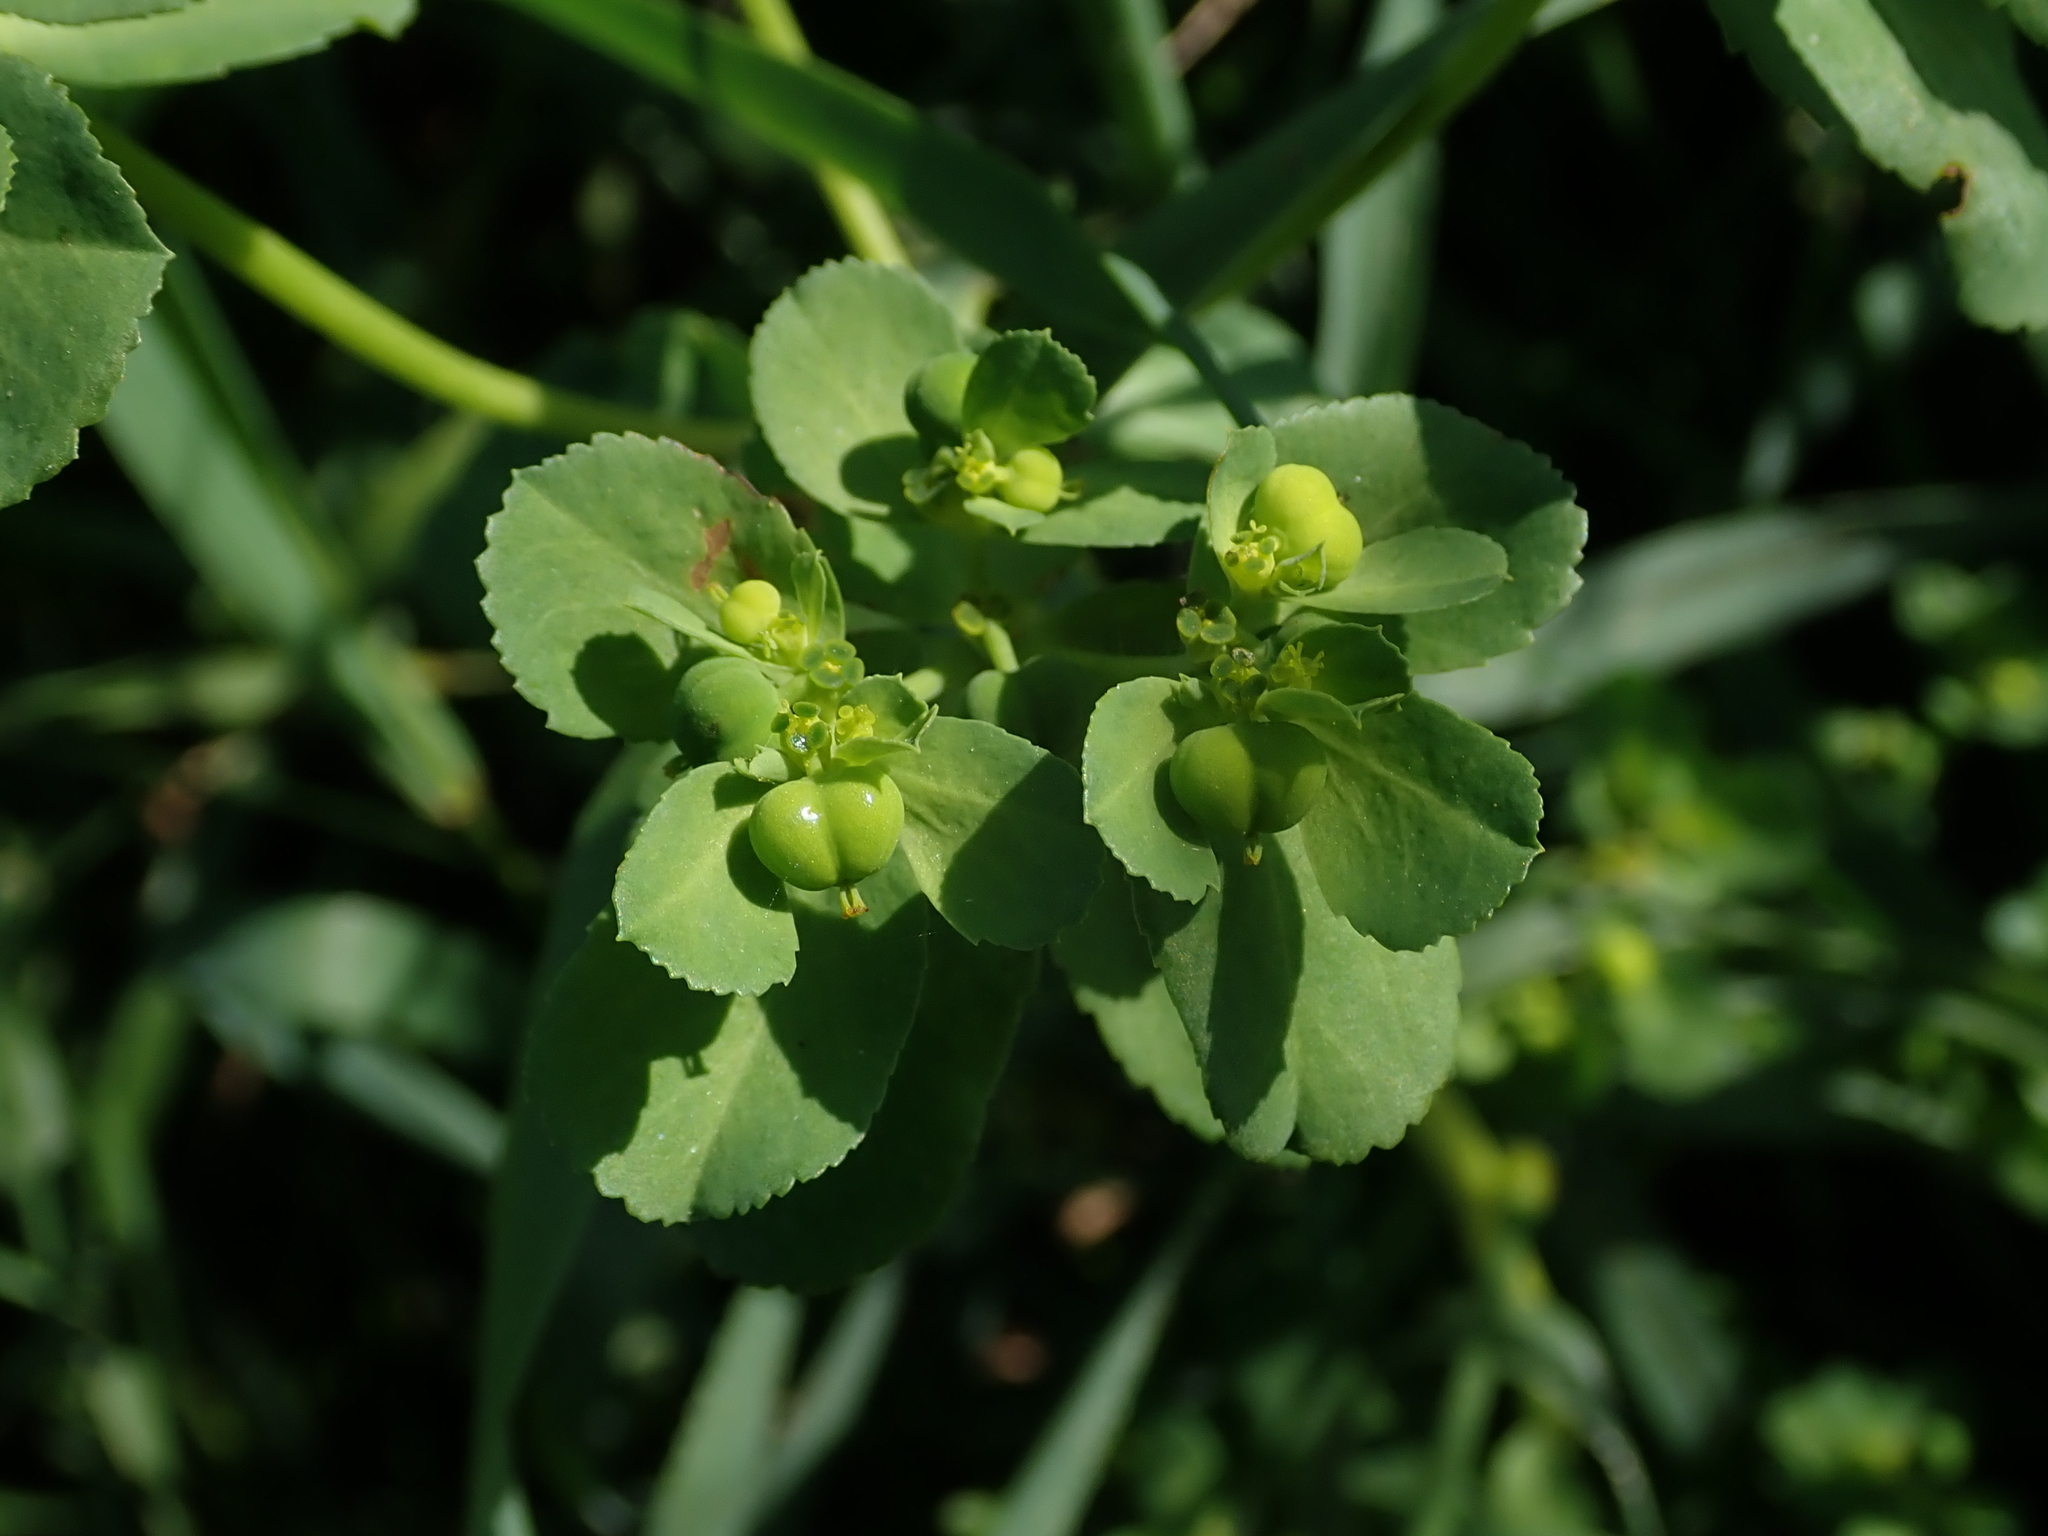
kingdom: Plantae
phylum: Tracheophyta
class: Magnoliopsida
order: Malpighiales
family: Euphorbiaceae
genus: Euphorbia
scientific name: Euphorbia helioscopia
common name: Sun spurge
